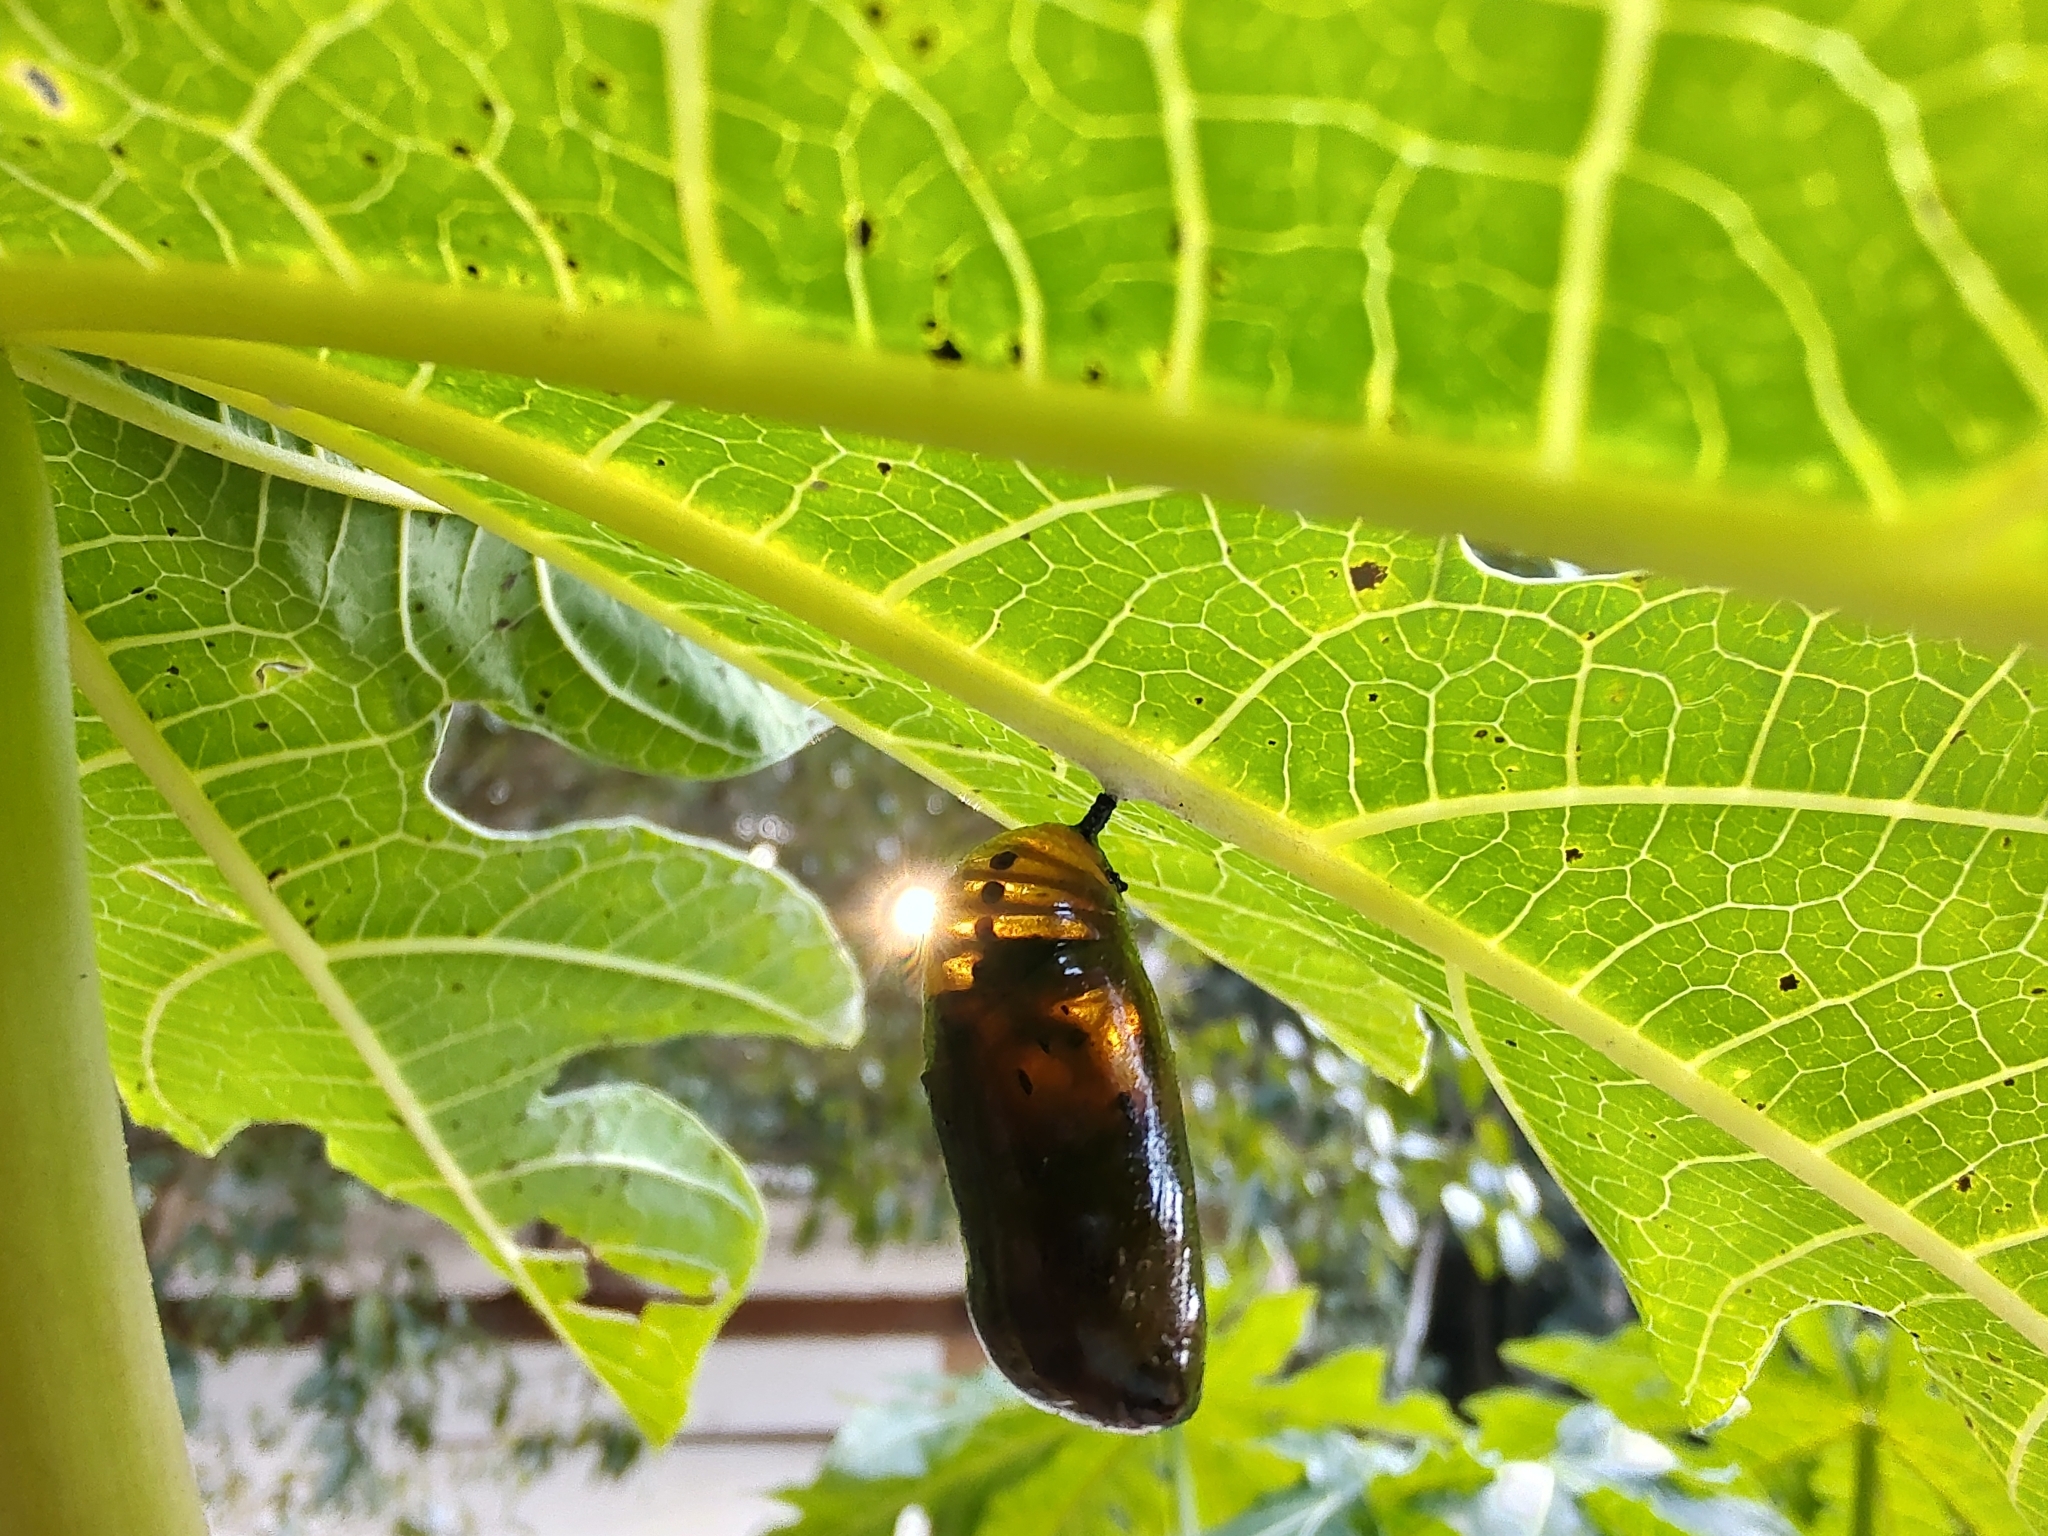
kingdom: Animalia
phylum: Arthropoda
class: Insecta
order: Lepidoptera
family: Nymphalidae
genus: Lycorea
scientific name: Lycorea cleobaea
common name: Tiger mimic-queen
